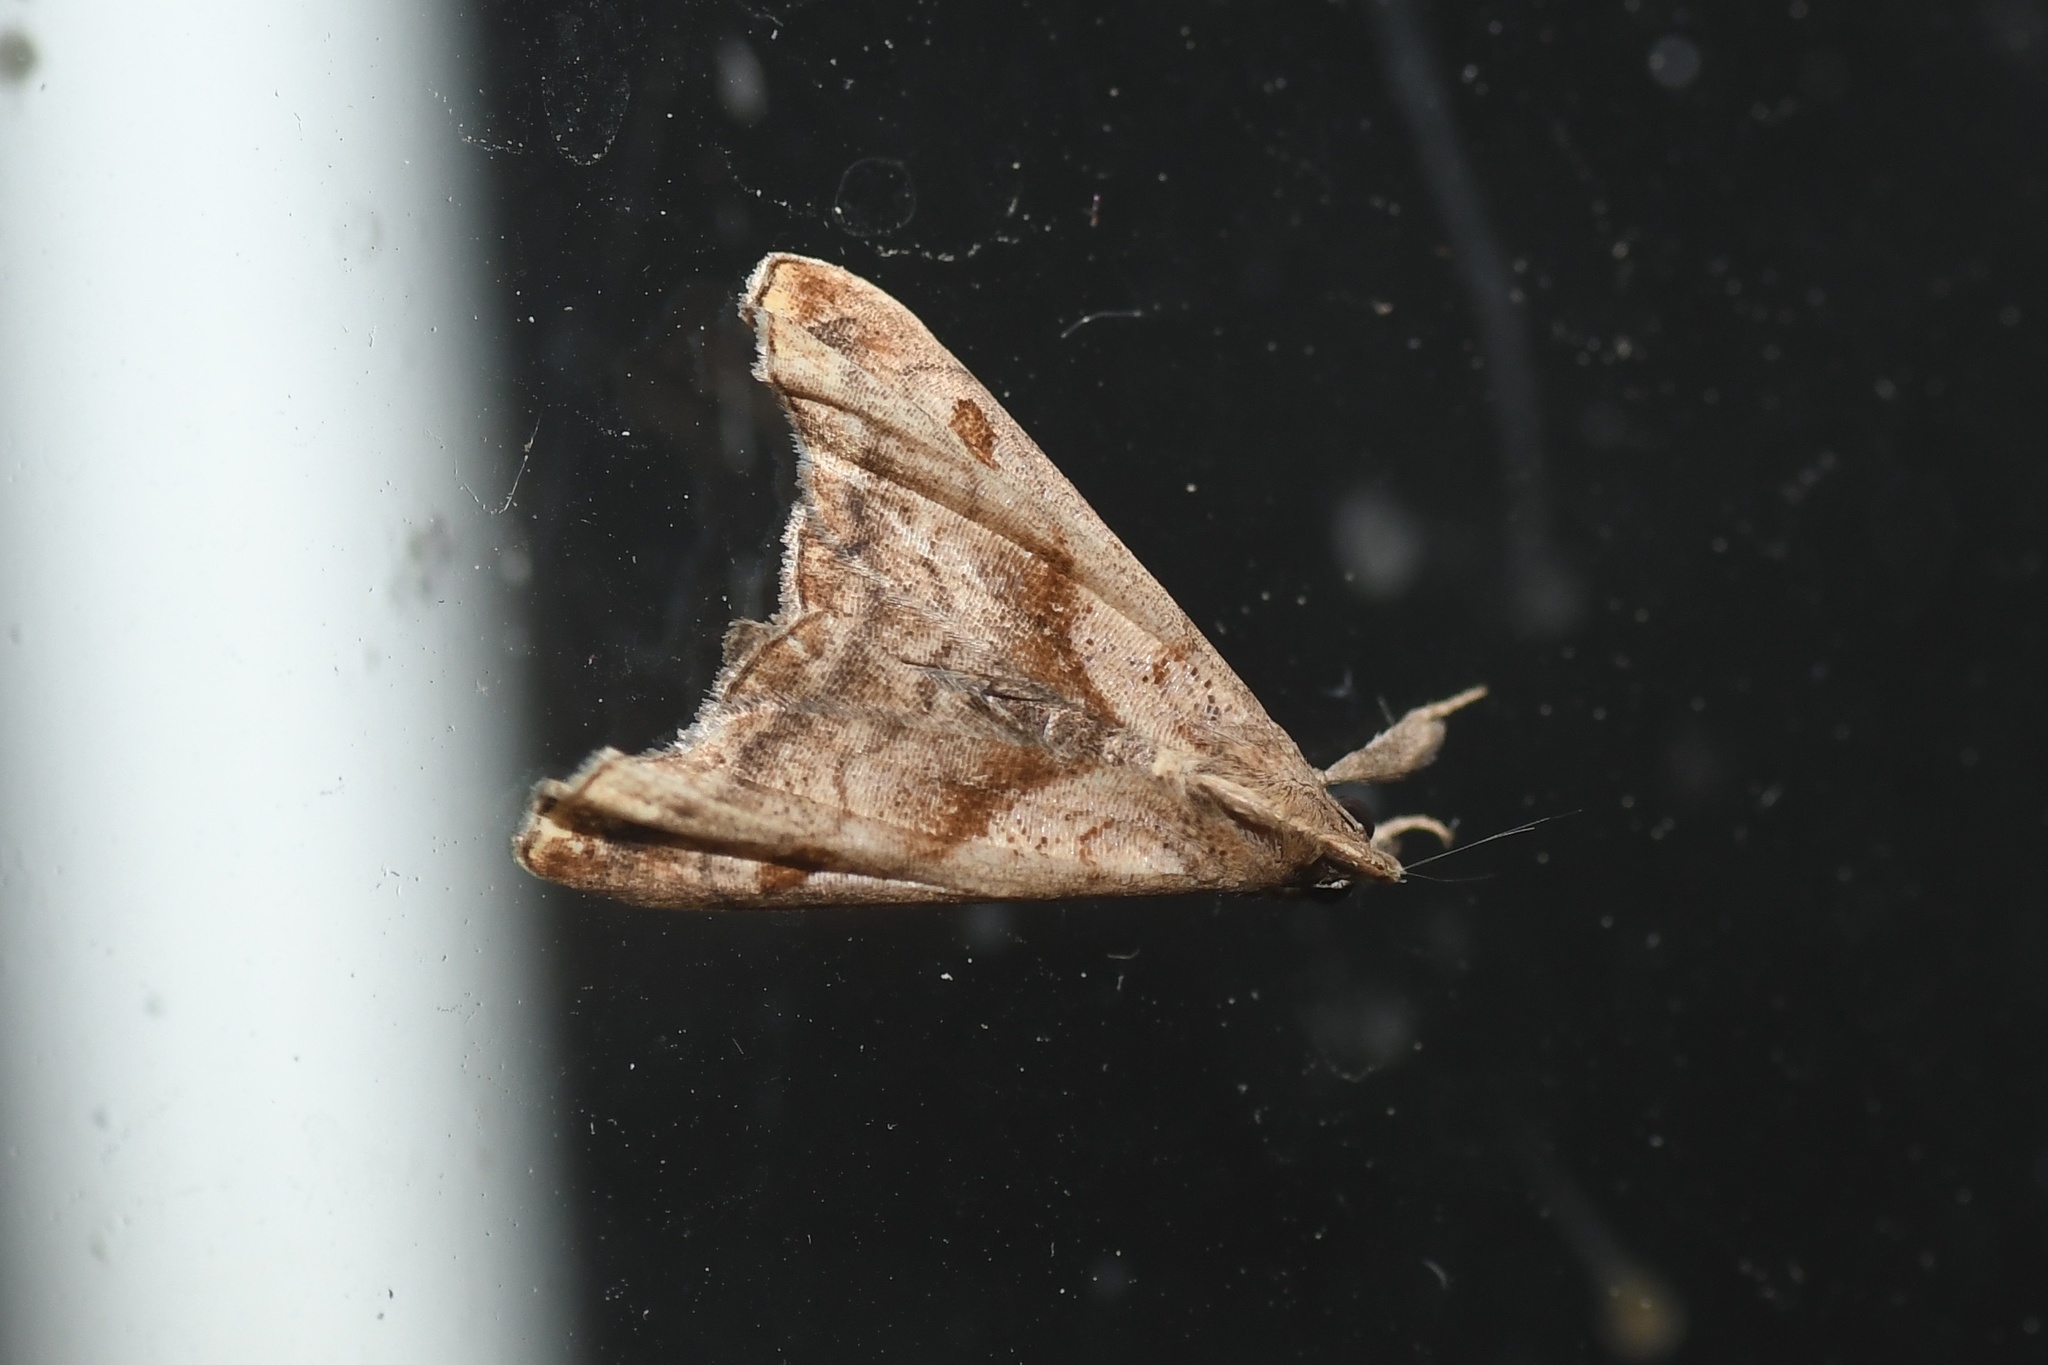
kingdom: Animalia
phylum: Arthropoda
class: Insecta
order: Lepidoptera
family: Erebidae
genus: Palthis
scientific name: Palthis angulalis
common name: Dark-spotted palthis moth
